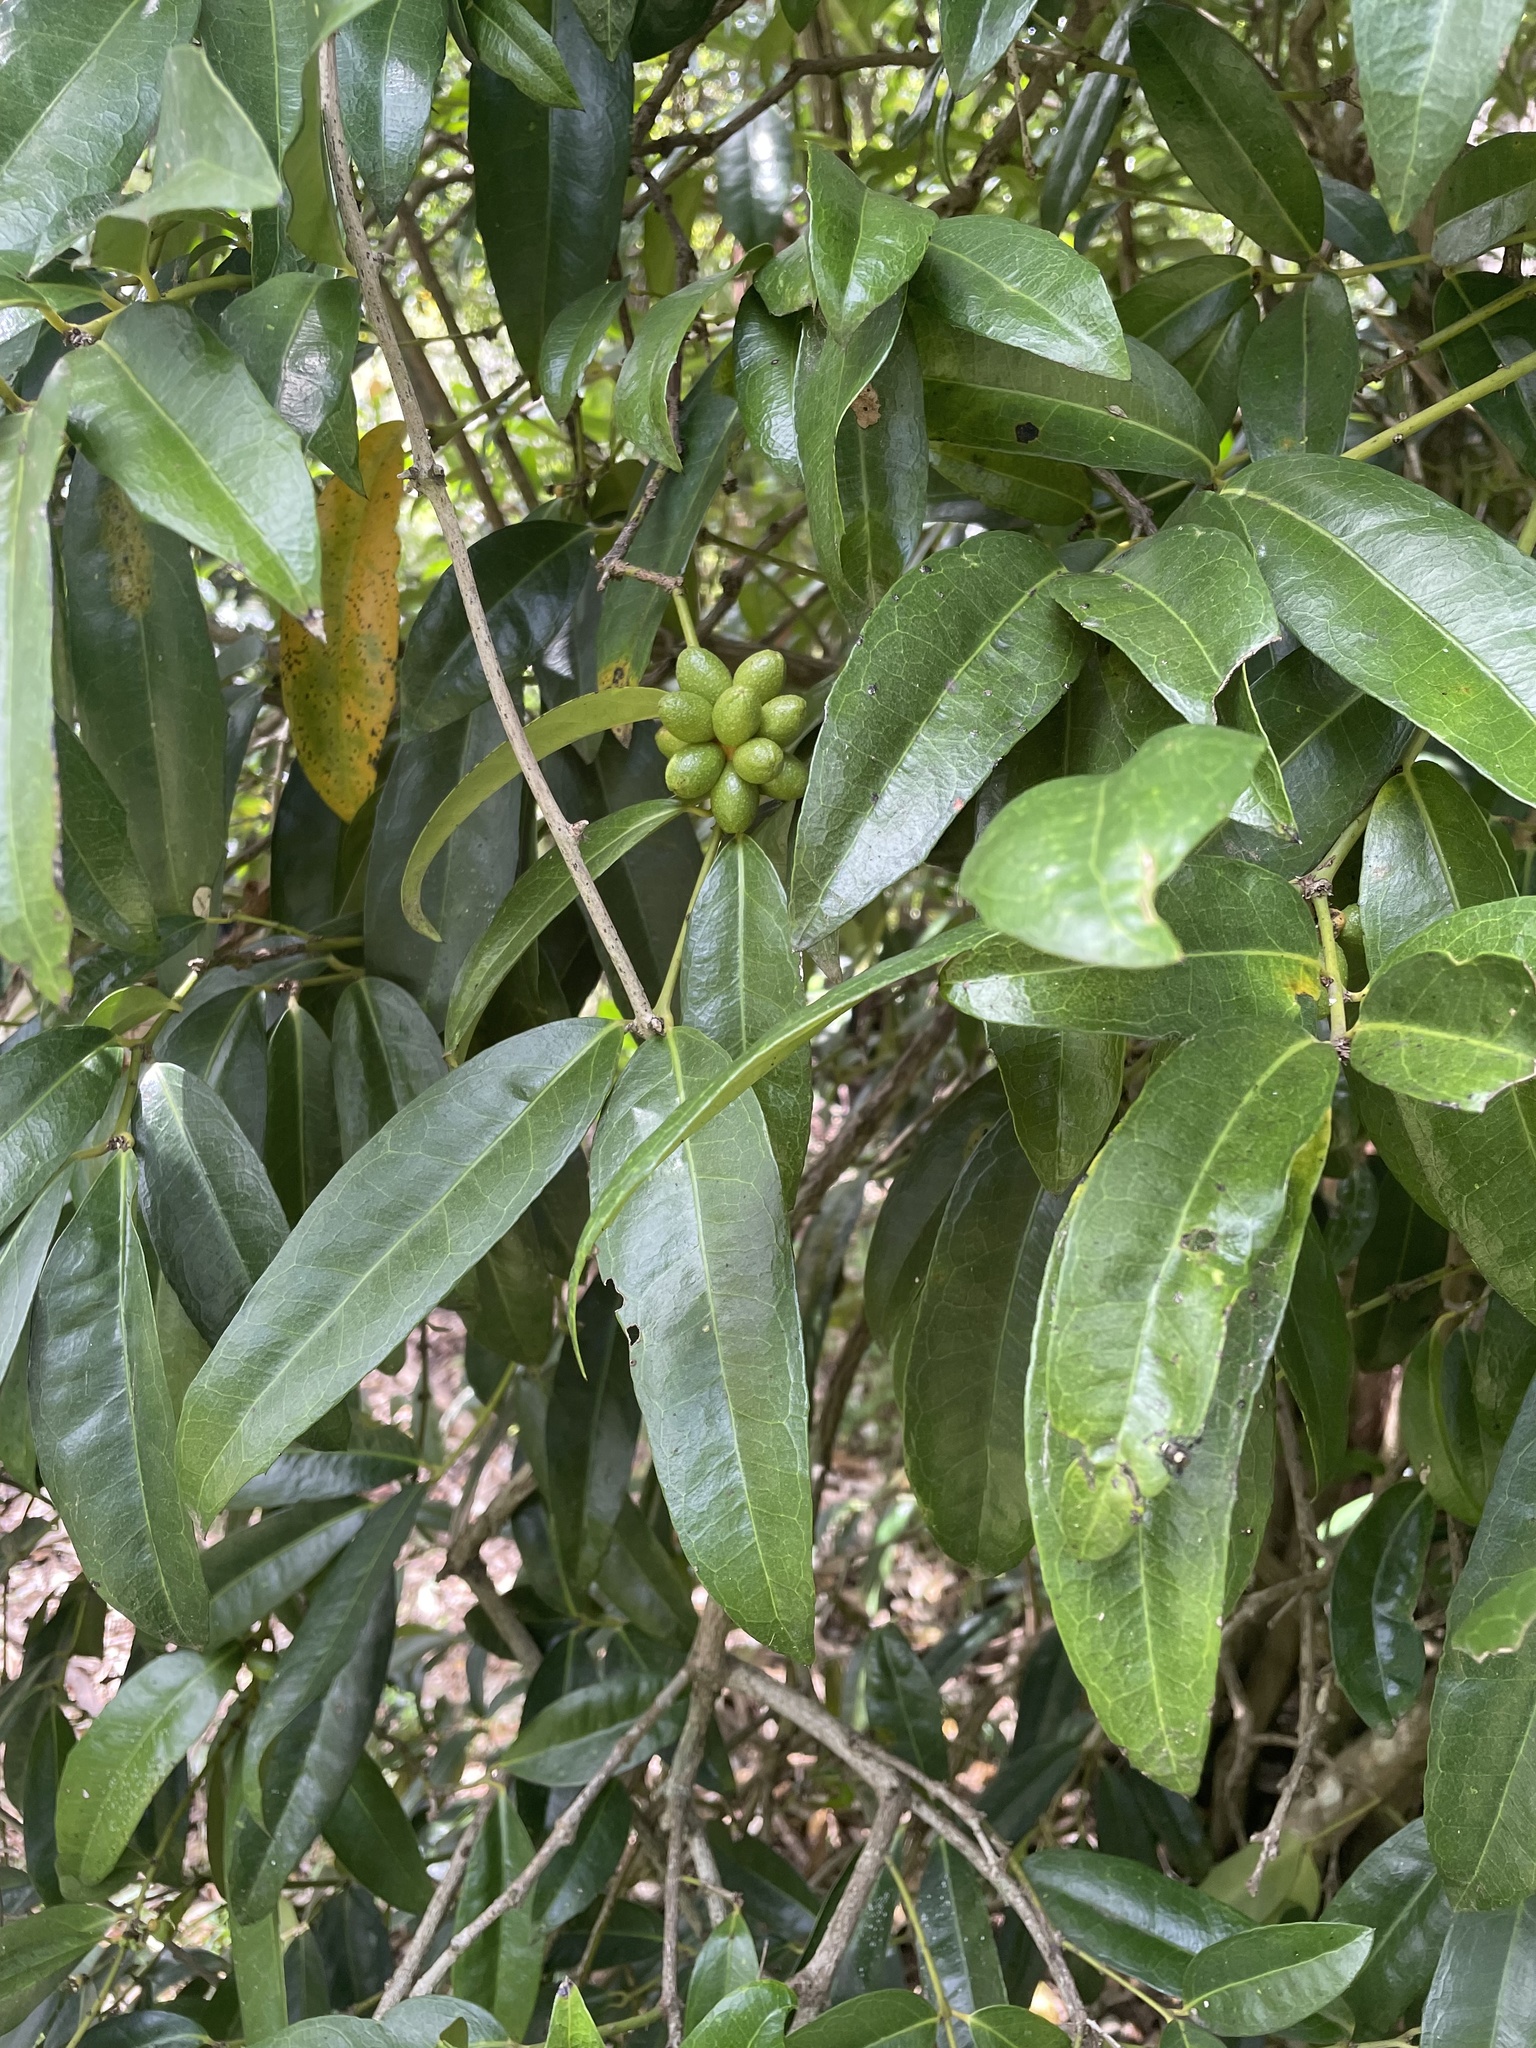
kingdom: Plantae
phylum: Tracheophyta
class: Magnoliopsida
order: Laurales
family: Monimiaceae
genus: Wilkiea
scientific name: Wilkiea macrophylla
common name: Large-leaved wilkiea
